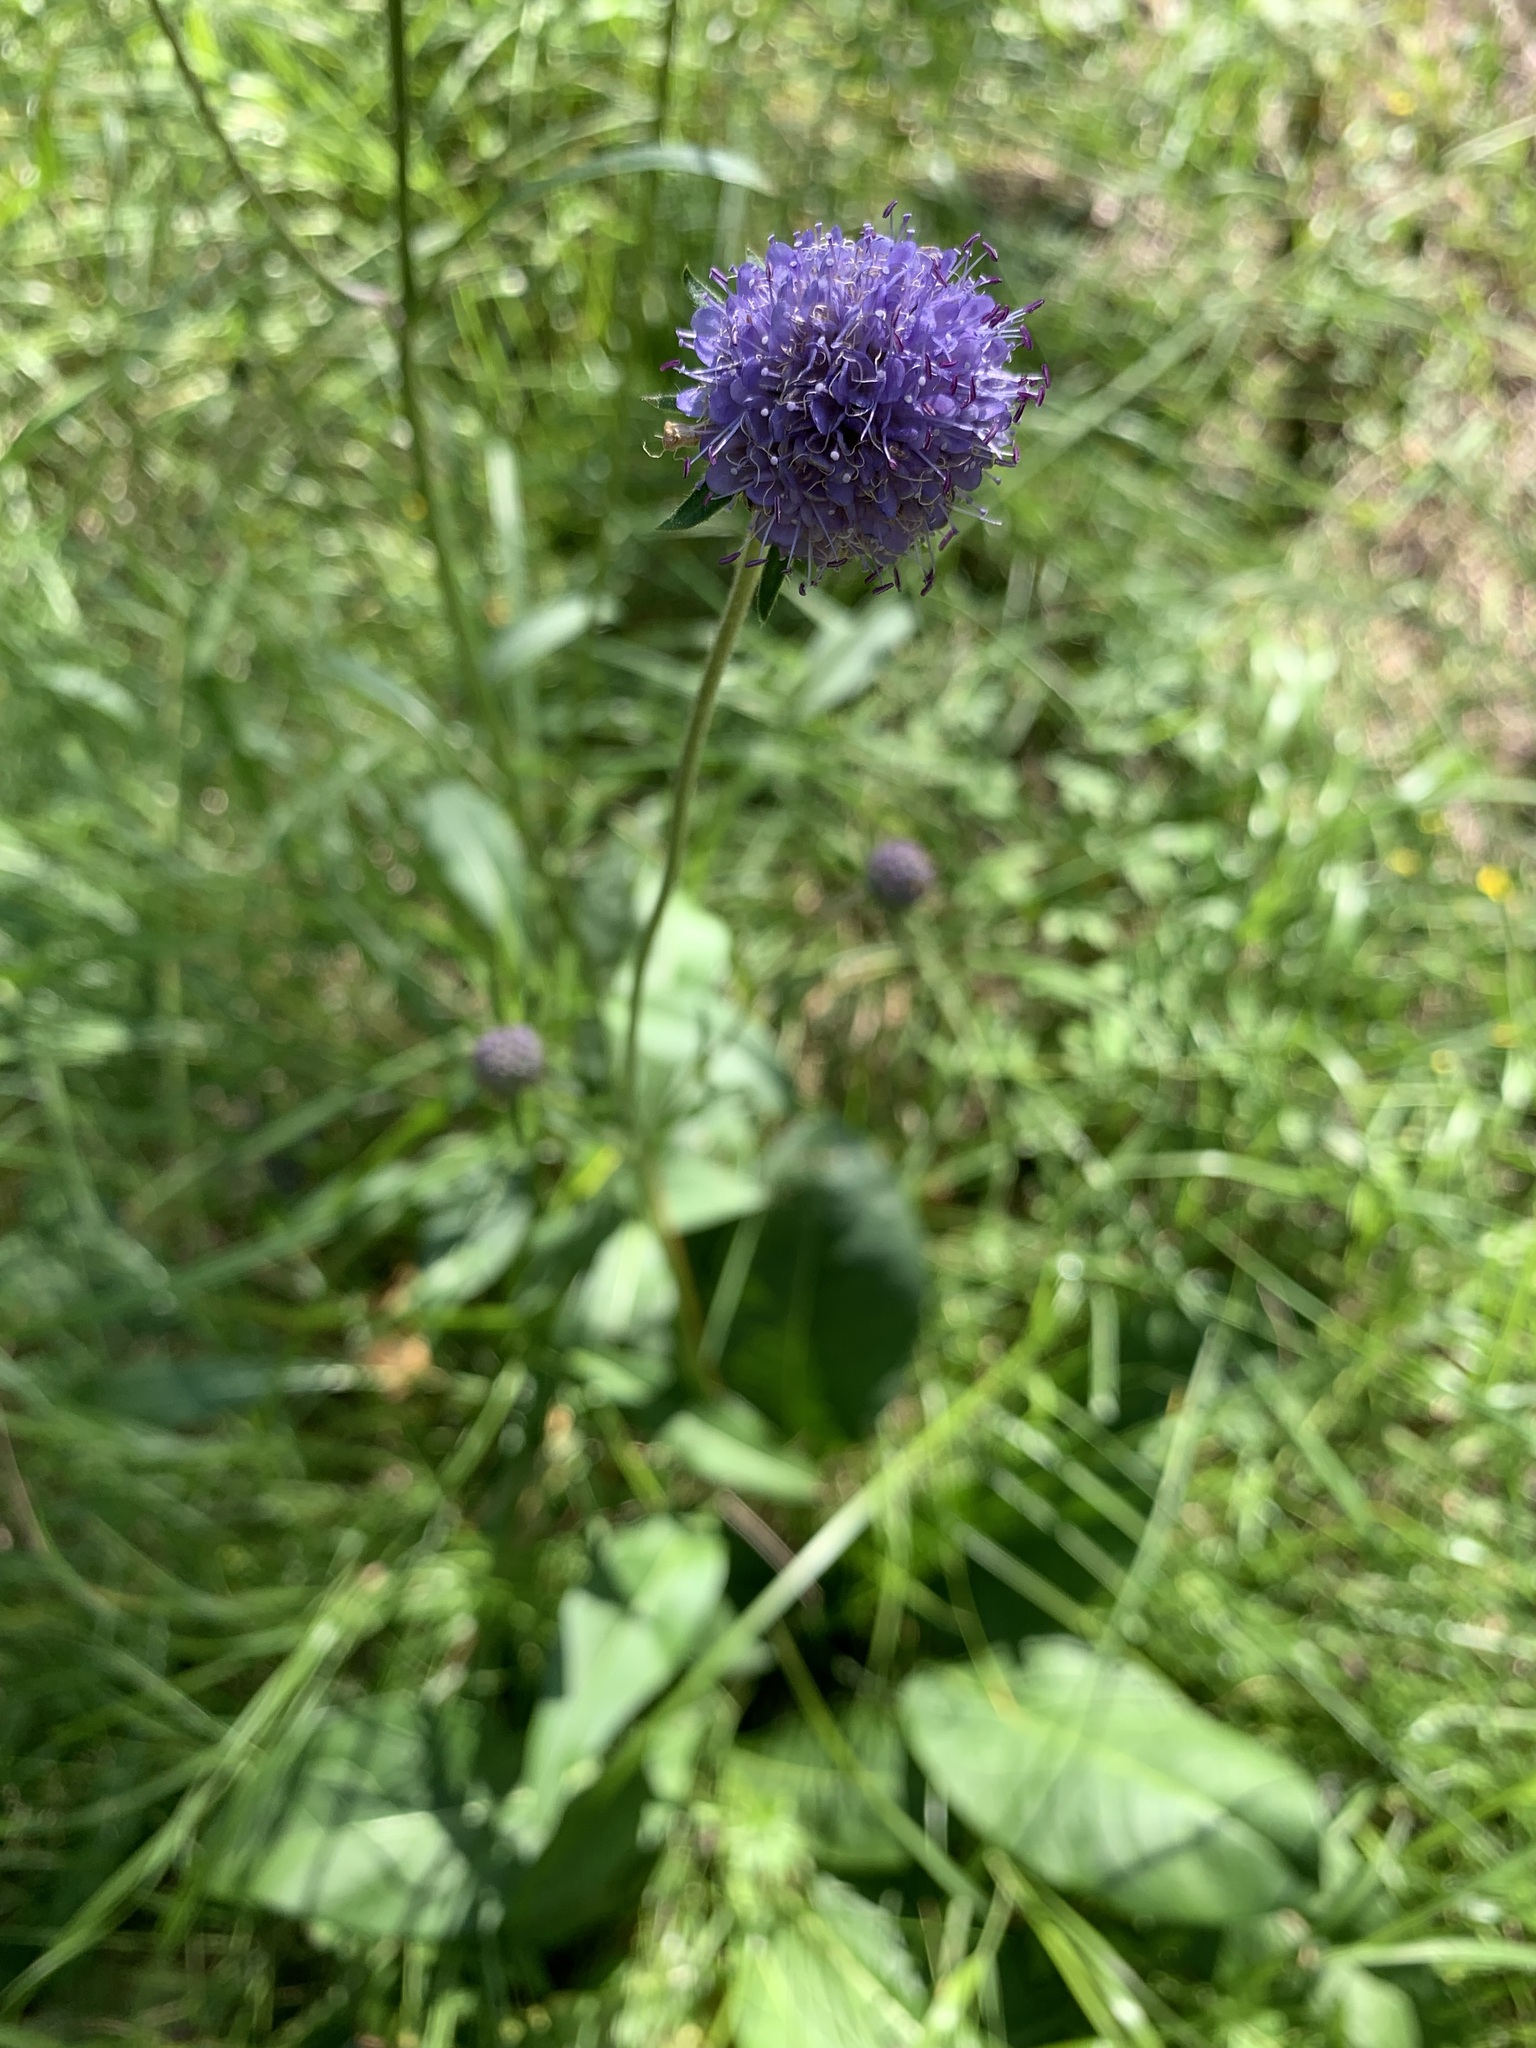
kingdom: Plantae
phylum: Tracheophyta
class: Magnoliopsida
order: Dipsacales
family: Caprifoliaceae
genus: Succisa
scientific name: Succisa pratensis
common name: Devil's-bit
